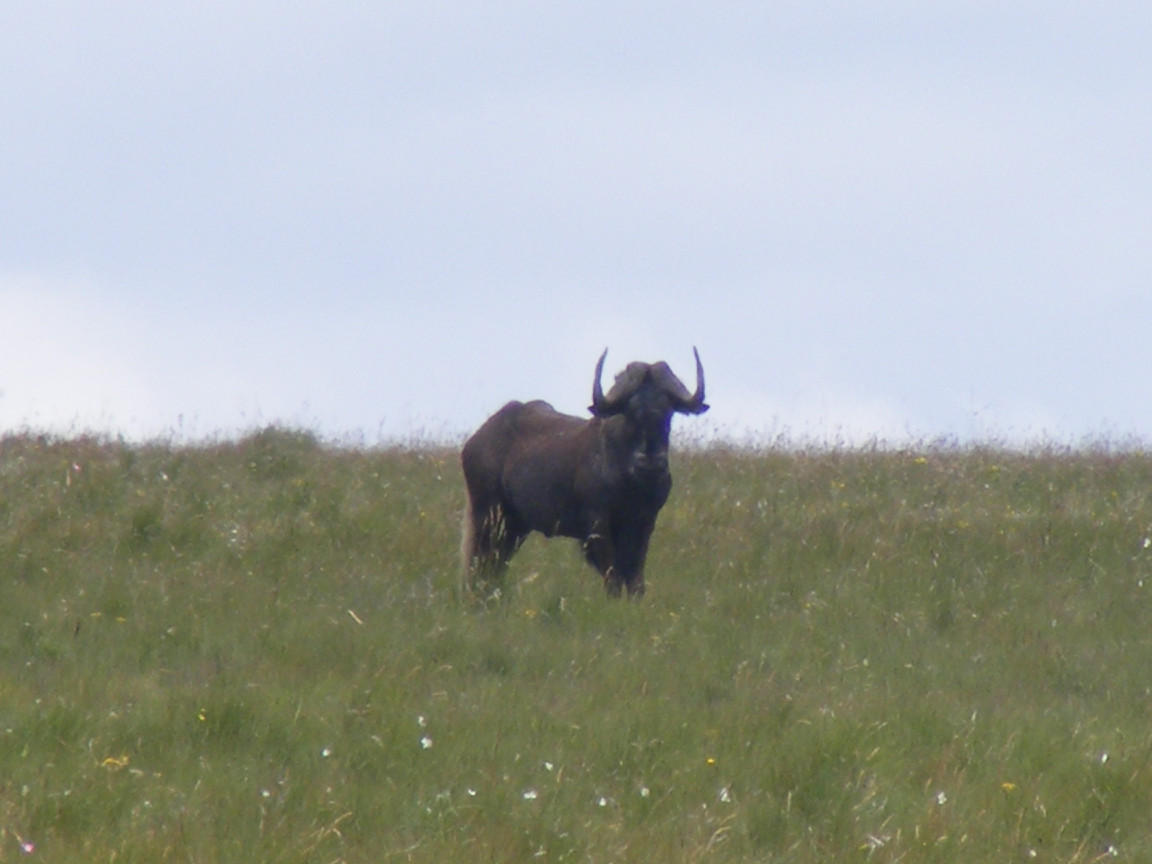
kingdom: Animalia
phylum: Chordata
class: Mammalia
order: Artiodactyla
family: Bovidae
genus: Connochaetes
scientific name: Connochaetes gnou
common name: Black wildebeest
